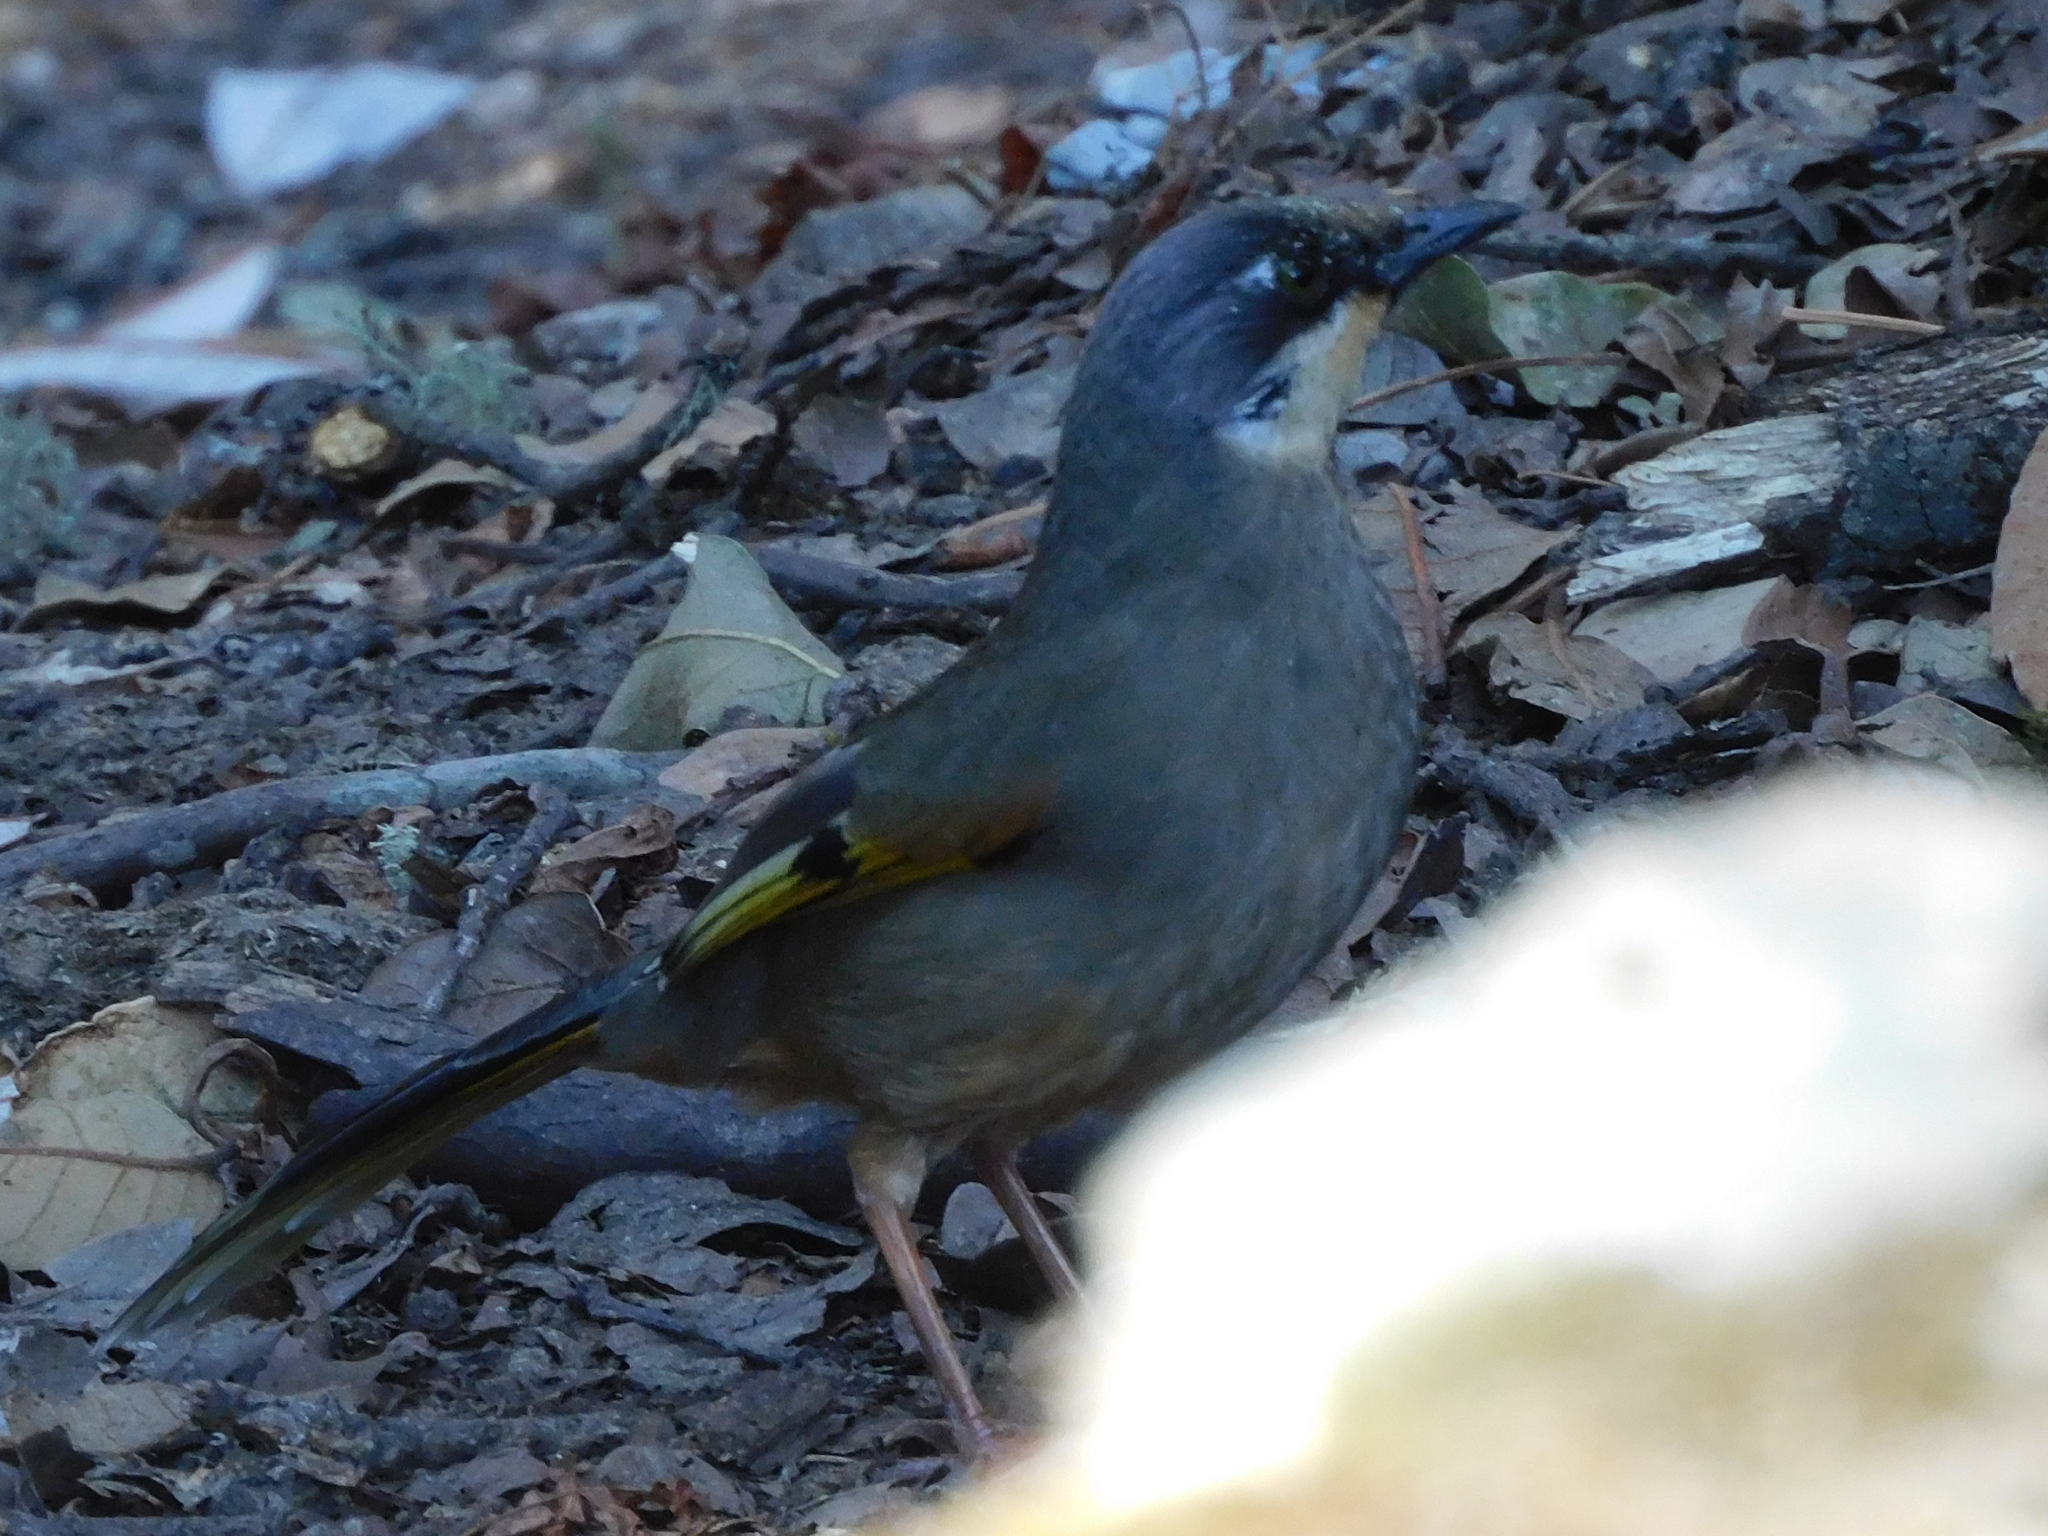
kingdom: Animalia
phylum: Chordata
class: Aves
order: Passeriformes
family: Leiothrichidae
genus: Trochalopteron
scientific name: Trochalopteron variegatum
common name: Variegated laughingthrush
